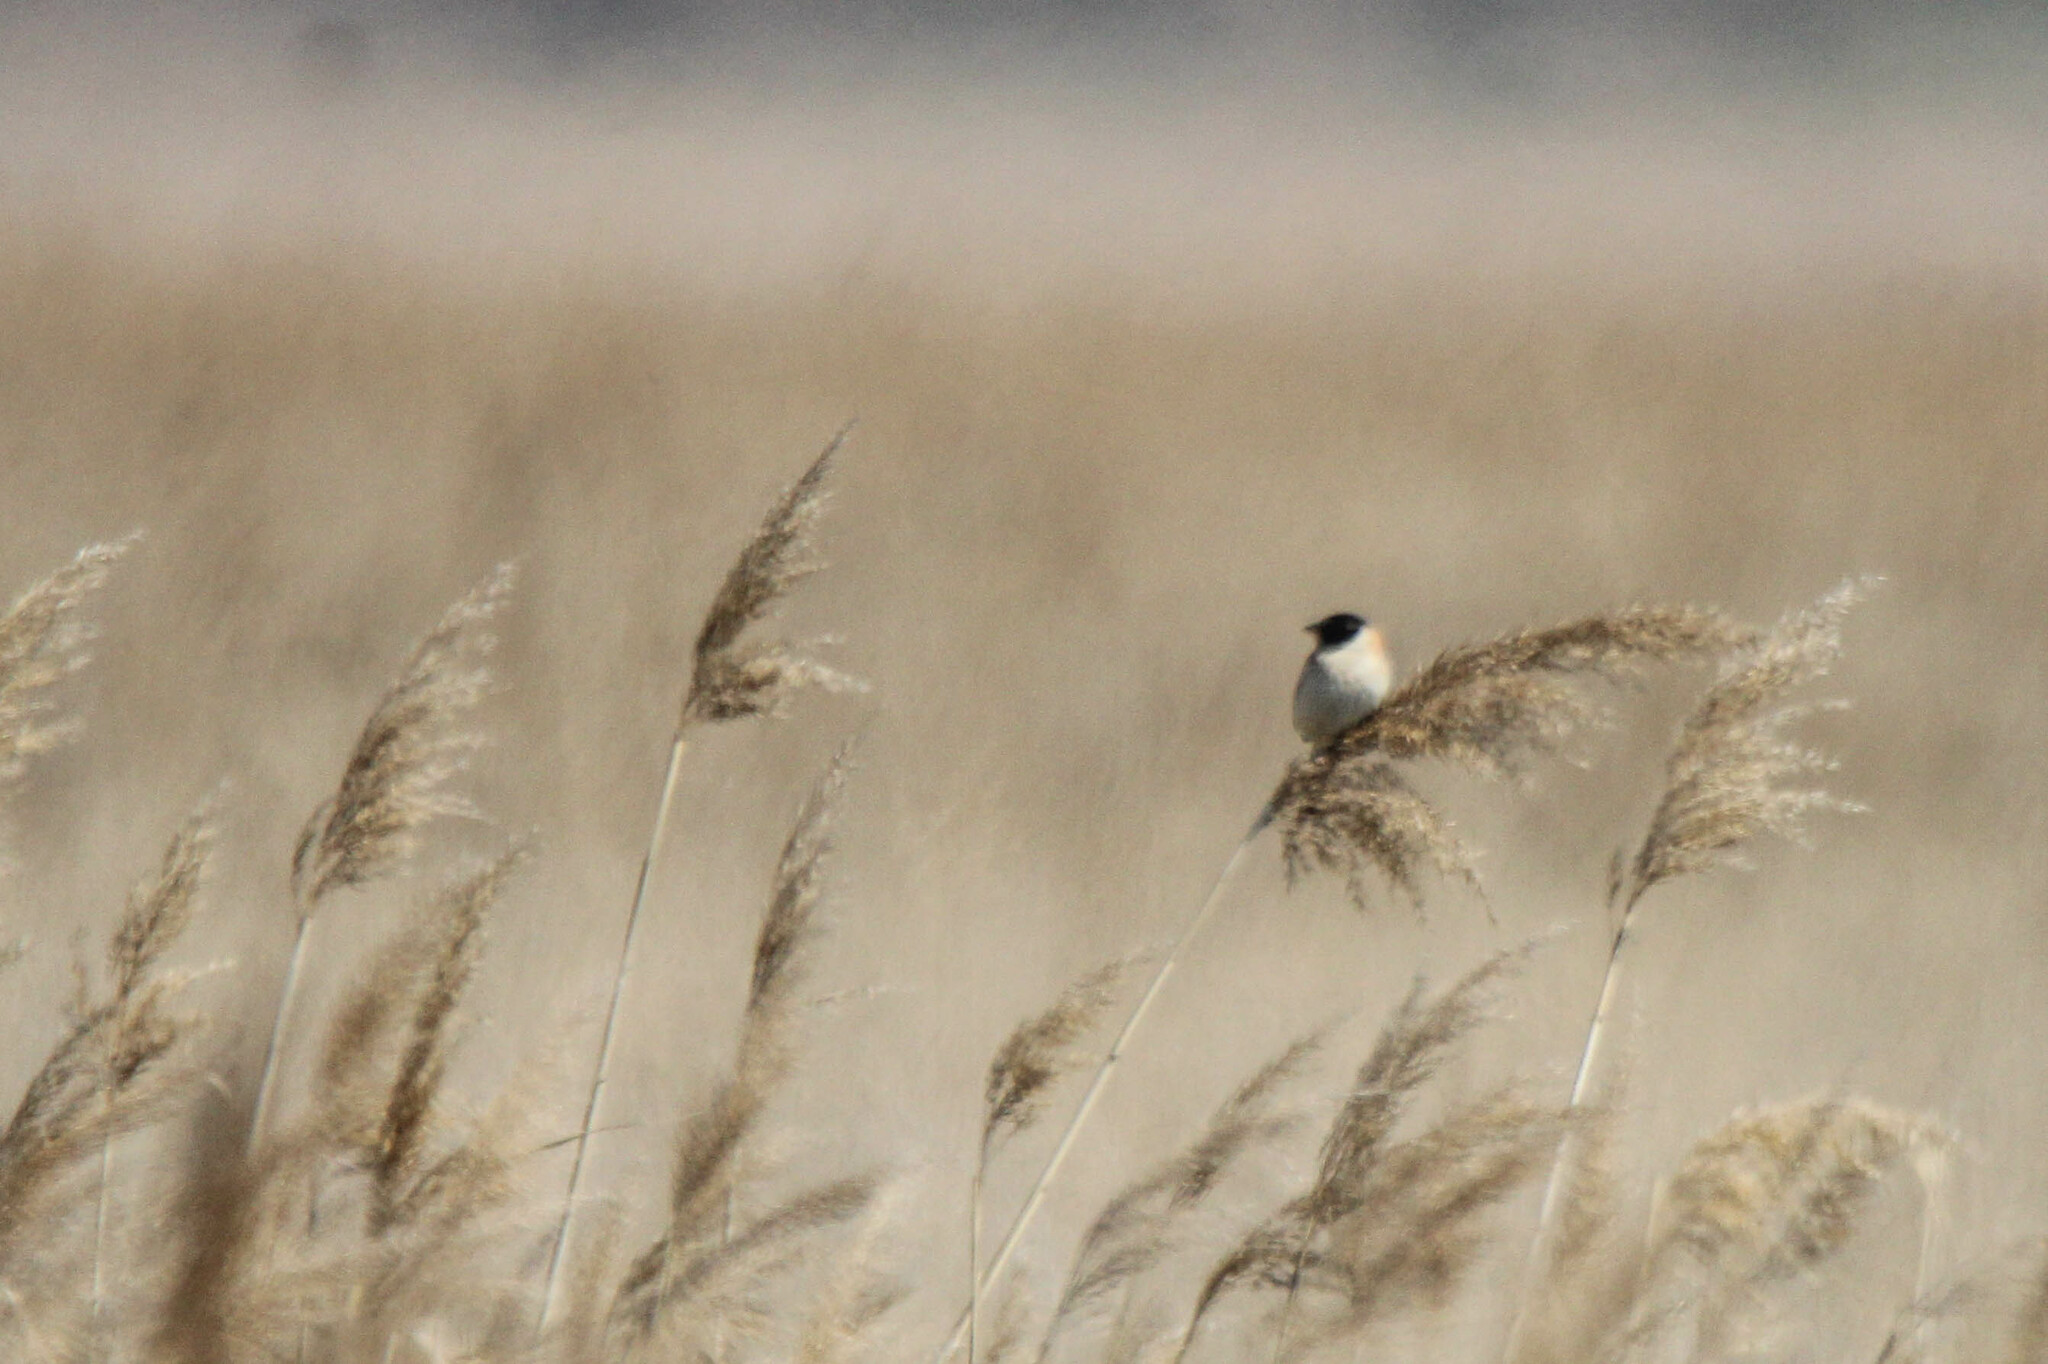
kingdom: Animalia
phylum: Chordata
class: Aves
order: Passeriformes
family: Emberizidae
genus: Emberiza
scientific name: Emberiza yessoensis
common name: Japanese reed bunting
